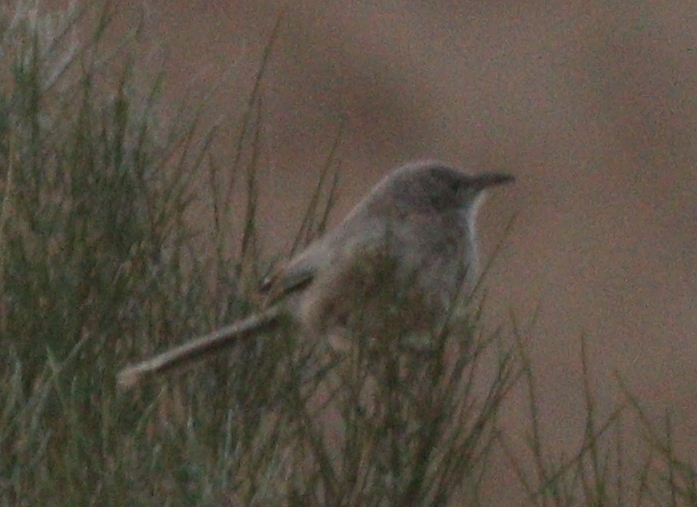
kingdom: Animalia
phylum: Chordata
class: Aves
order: Passeriformes
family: Leiothrichidae
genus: Turdoides
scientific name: Turdoides squamiceps
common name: Arabian babbler
